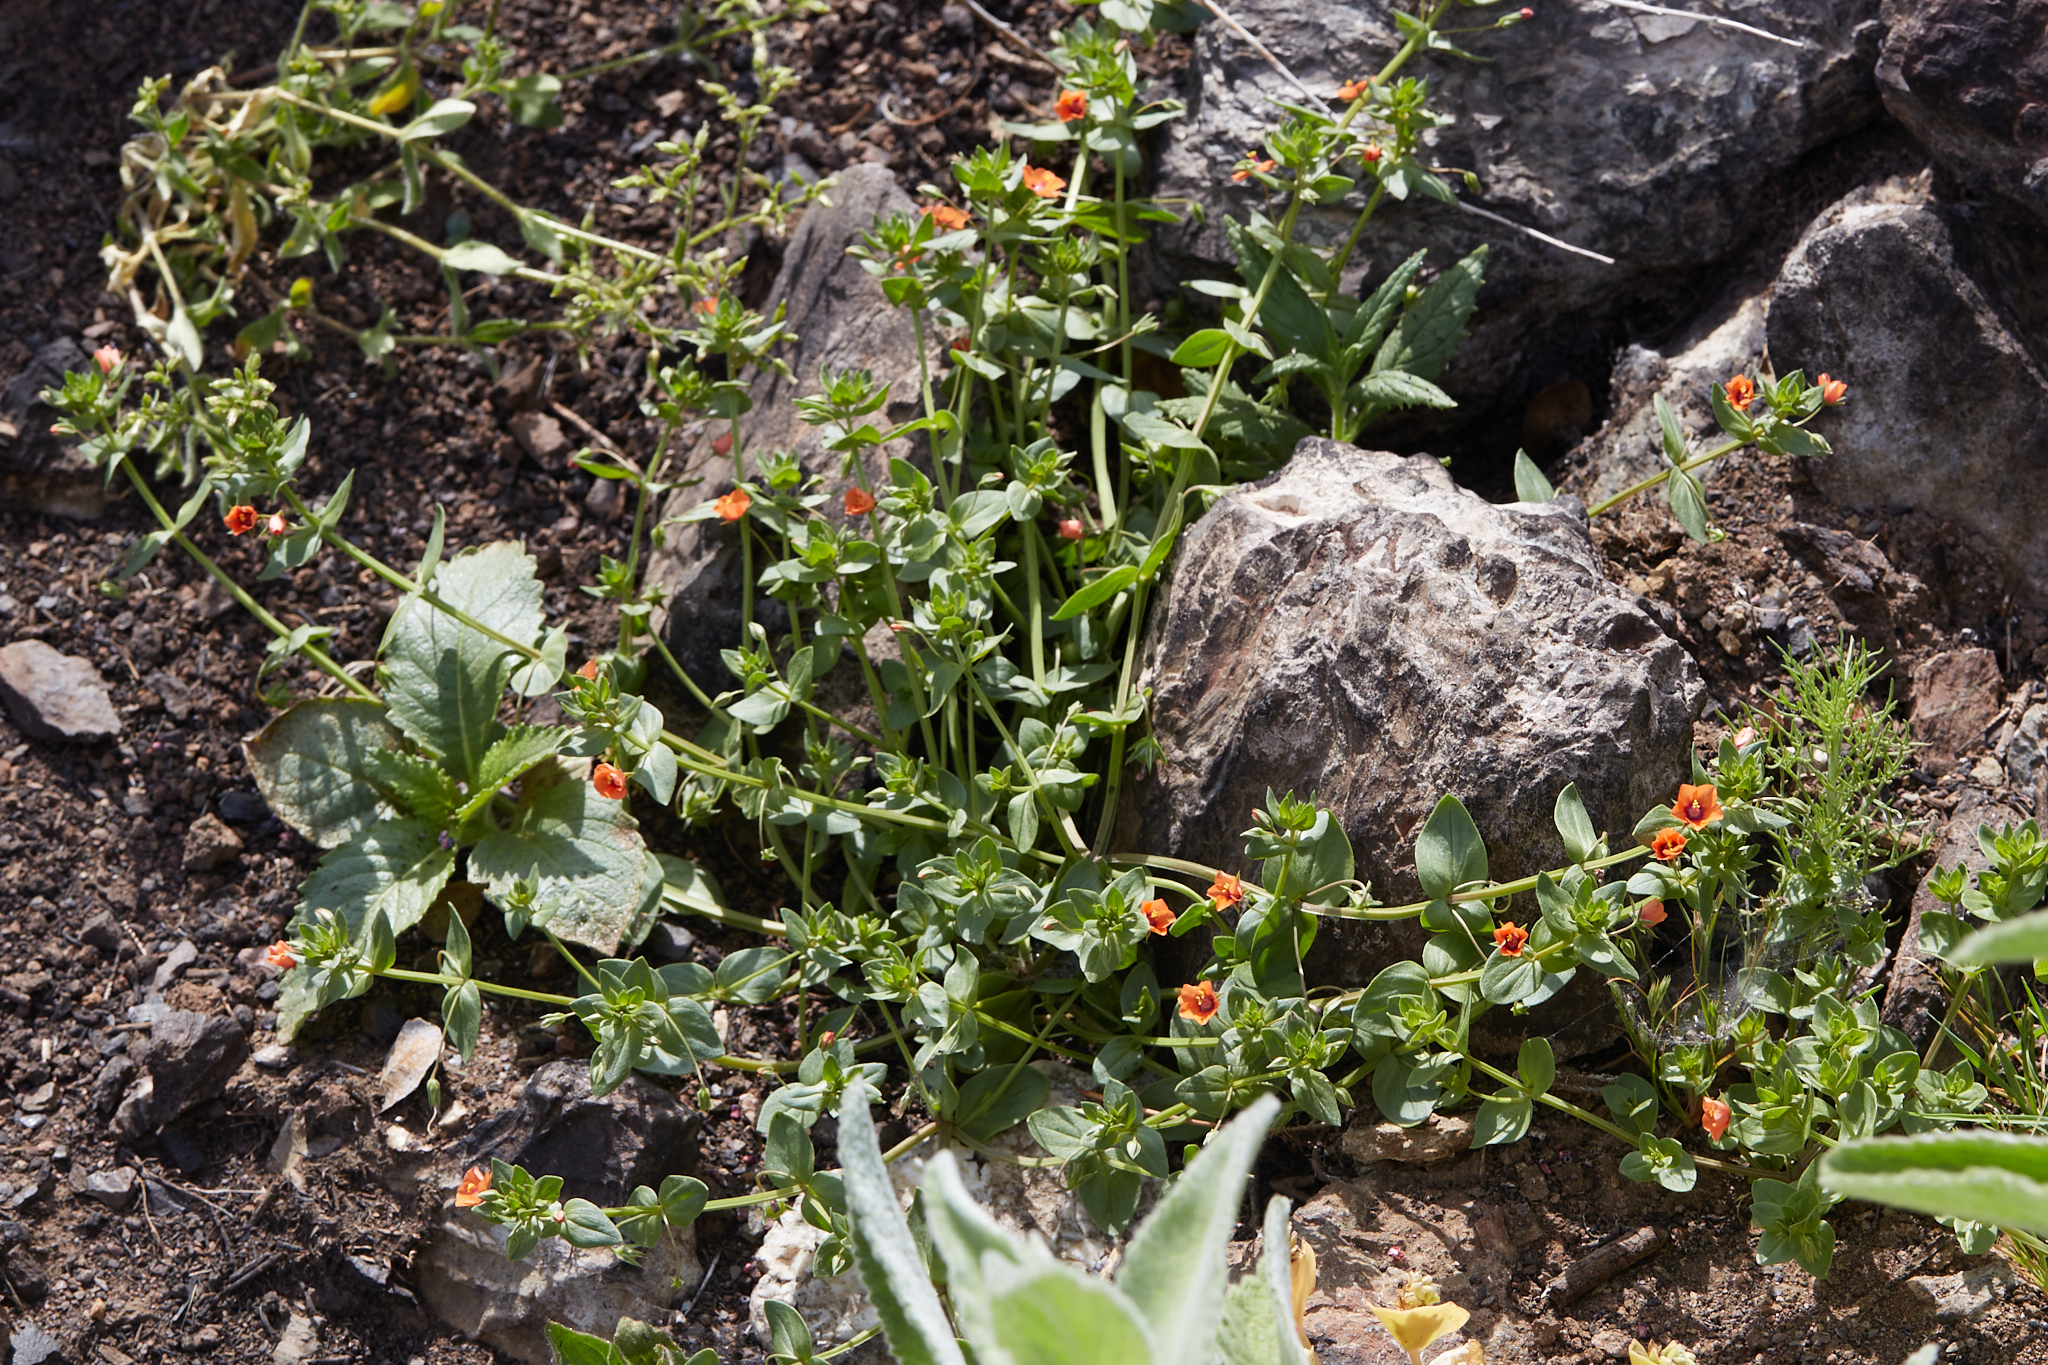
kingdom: Plantae
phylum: Tracheophyta
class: Magnoliopsida
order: Ericales
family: Primulaceae
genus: Lysimachia
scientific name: Lysimachia arvensis
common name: Scarlet pimpernel
